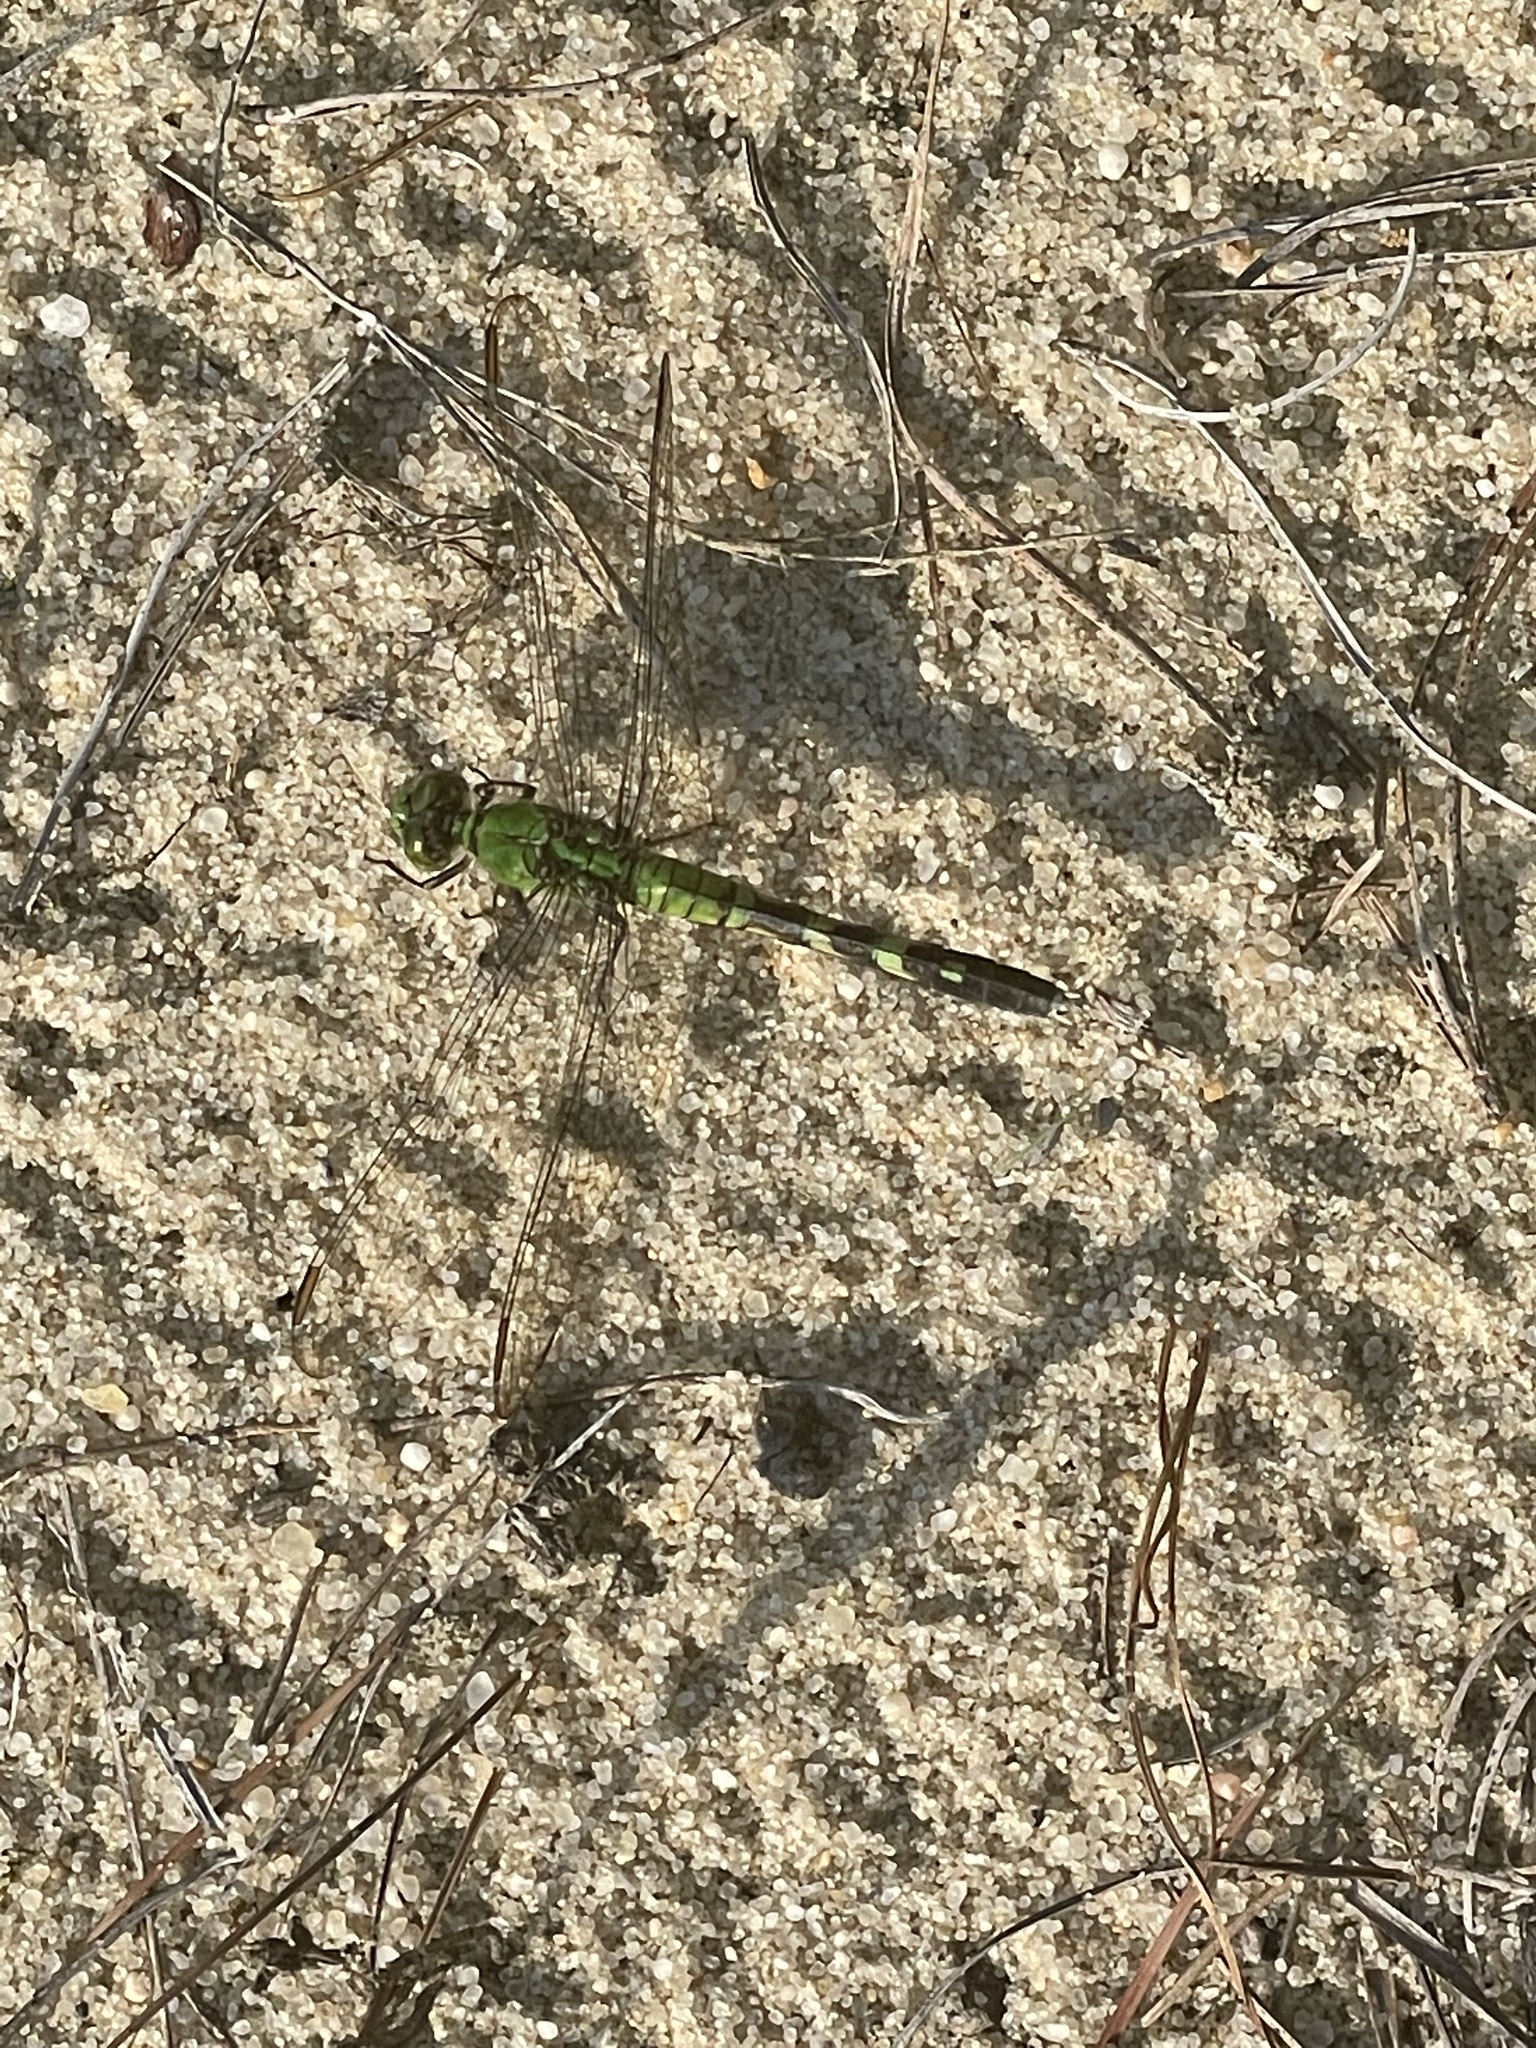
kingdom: Animalia
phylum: Arthropoda
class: Insecta
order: Odonata
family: Libellulidae
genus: Erythemis
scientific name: Erythemis simplicicollis
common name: Eastern pondhawk
